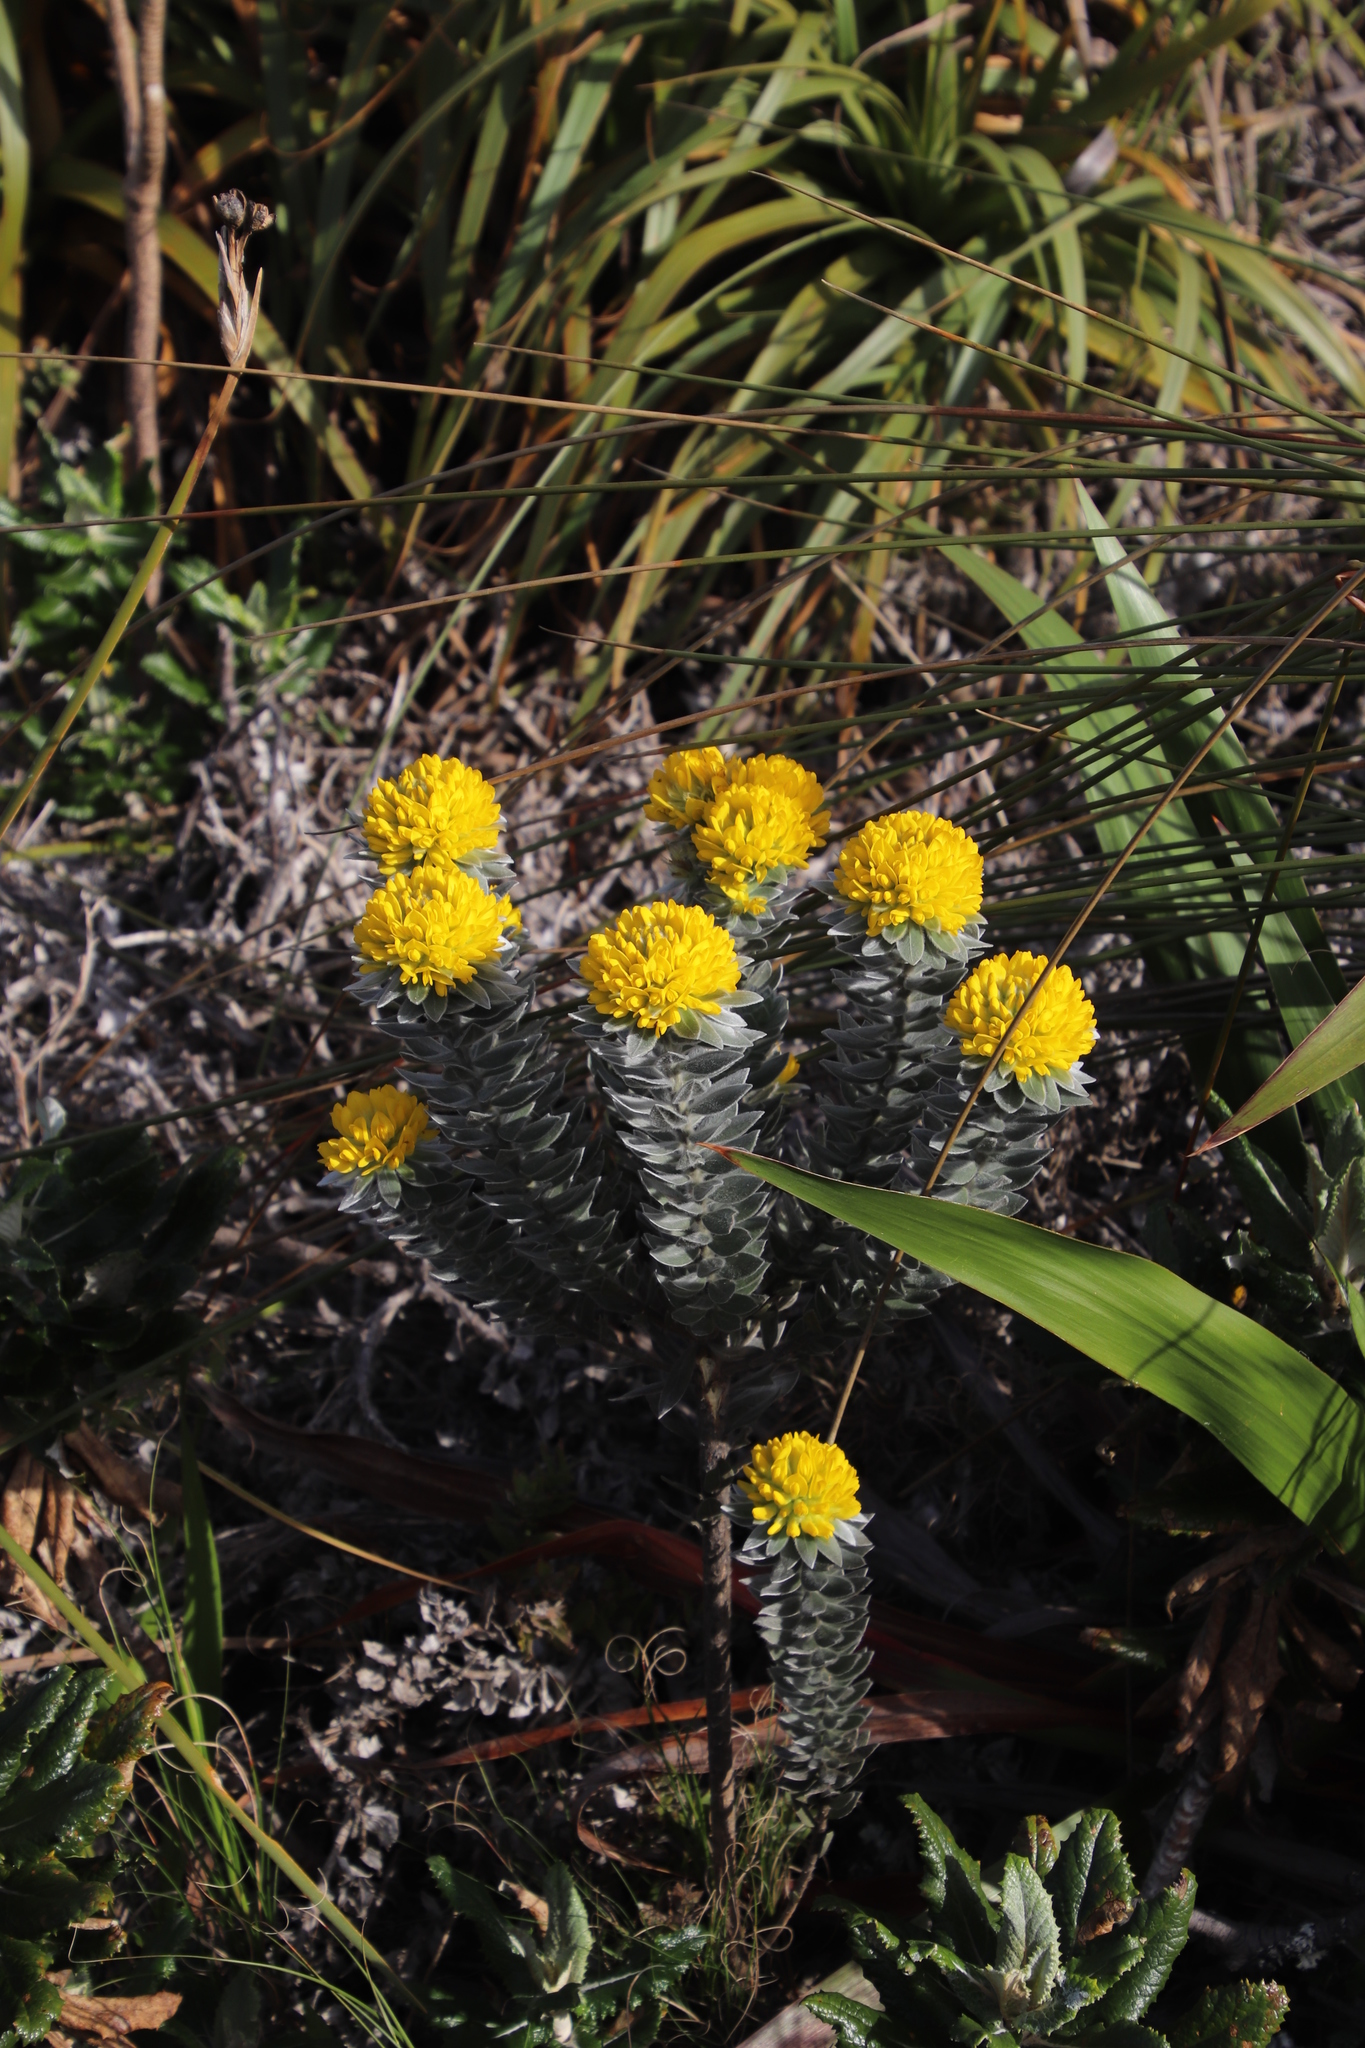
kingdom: Plantae
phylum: Tracheophyta
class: Magnoliopsida
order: Fabales
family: Fabaceae
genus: Xiphotheca
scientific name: Xiphotheca fruticosa
